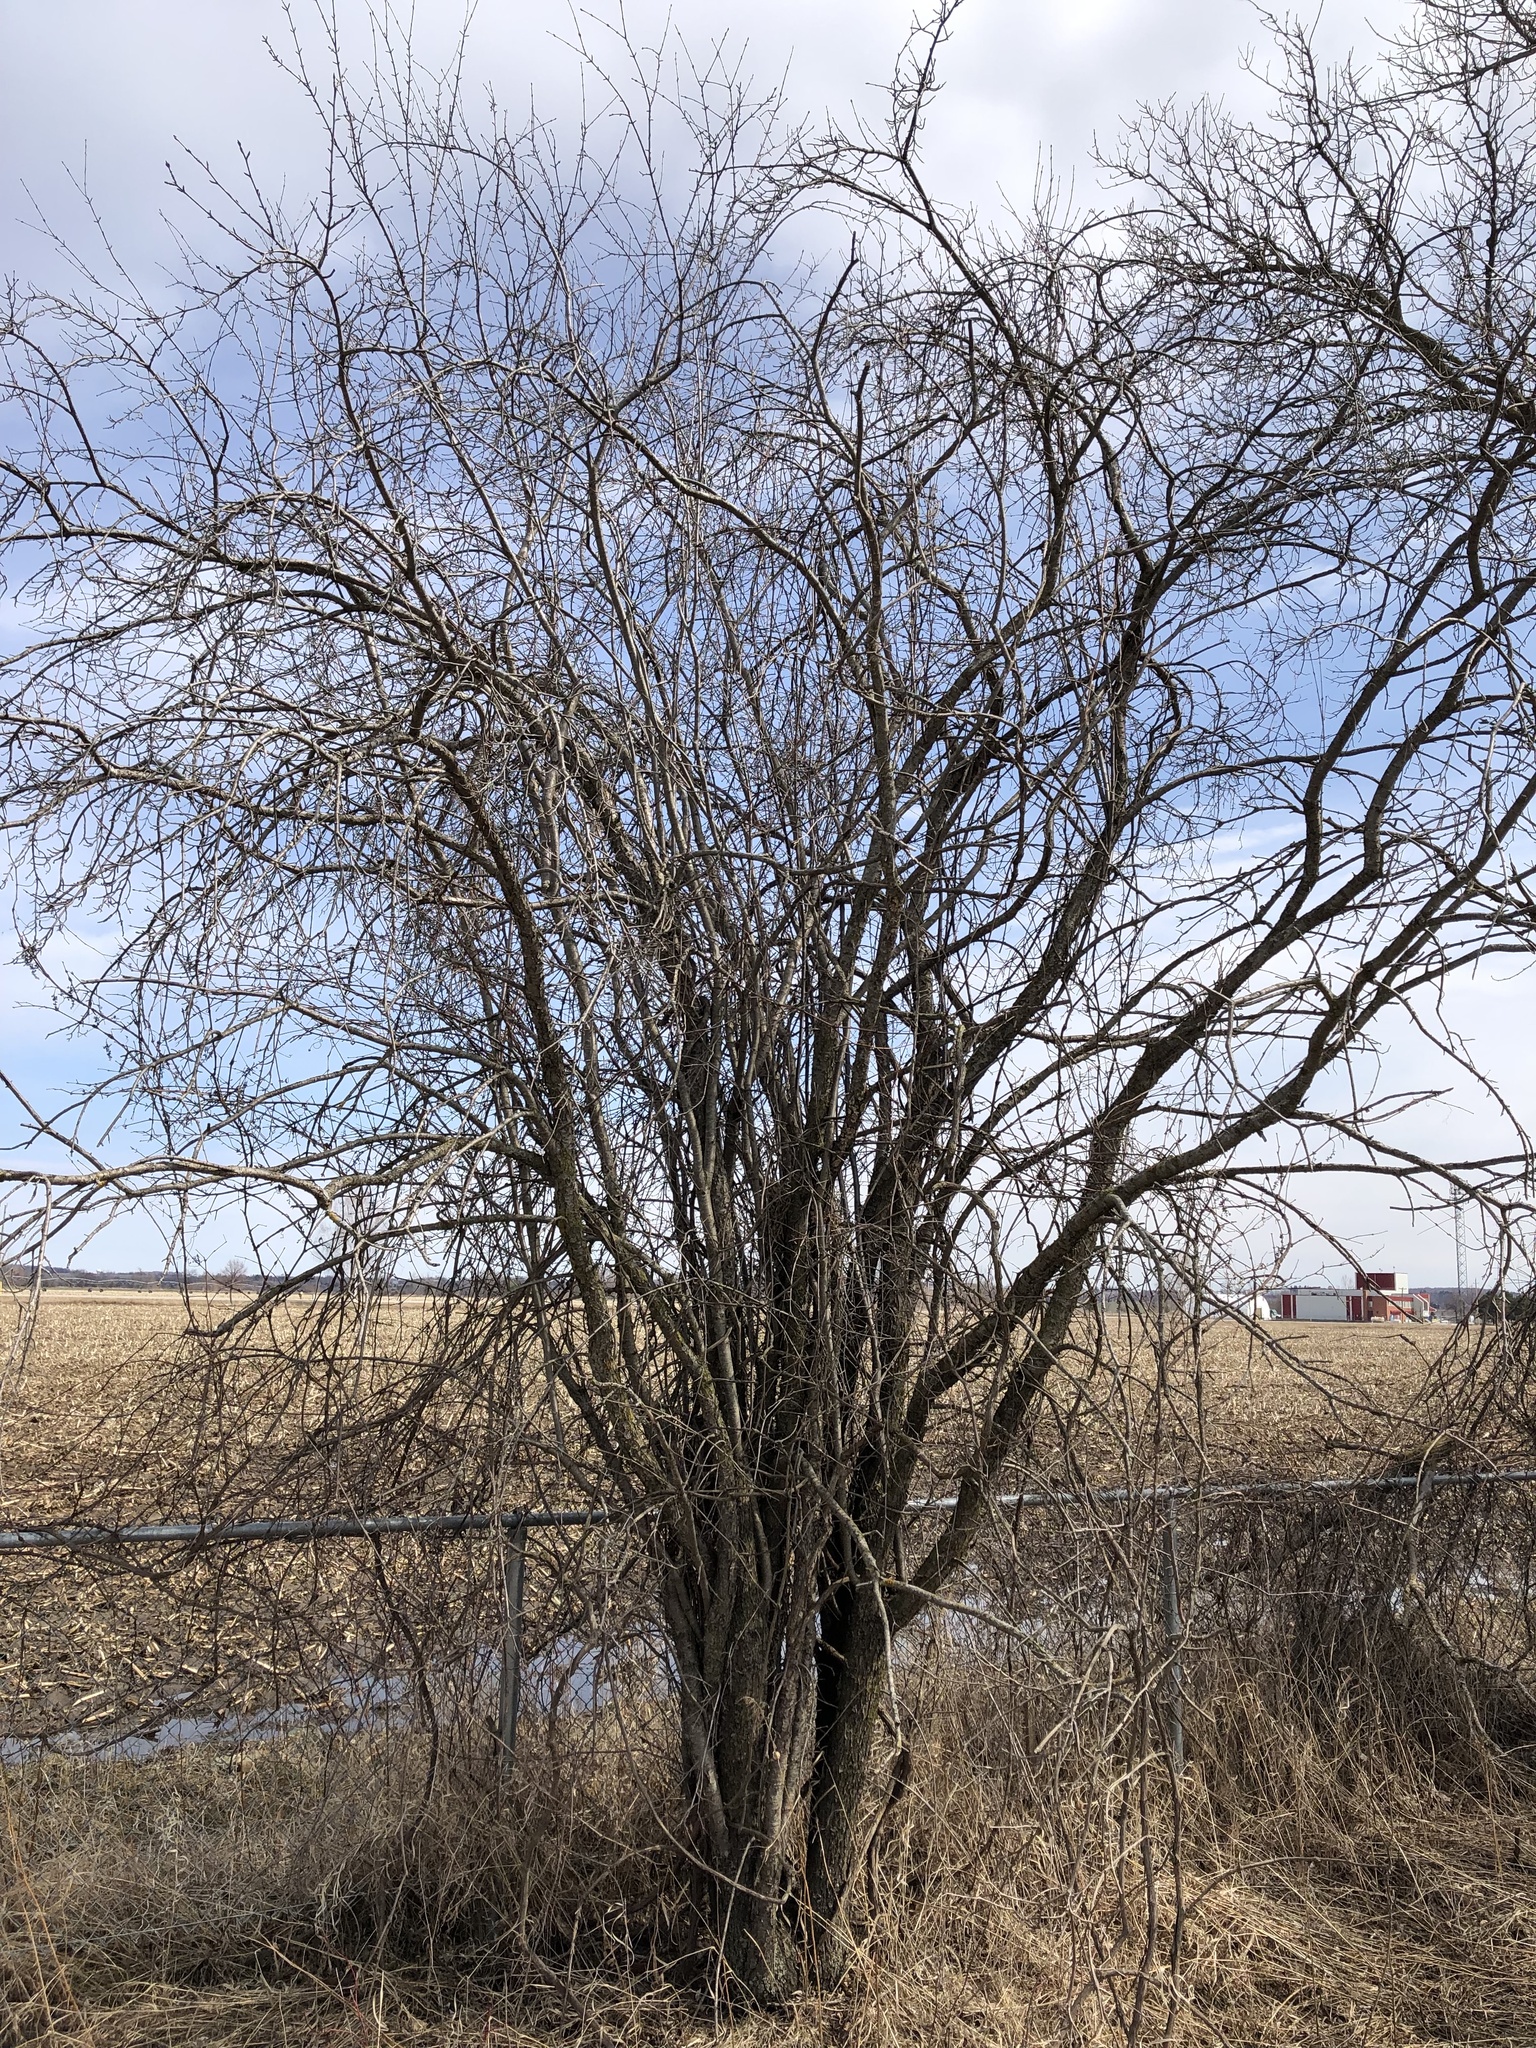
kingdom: Plantae
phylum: Tracheophyta
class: Magnoliopsida
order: Rosales
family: Rhamnaceae
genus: Rhamnus
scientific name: Rhamnus cathartica
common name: Common buckthorn
